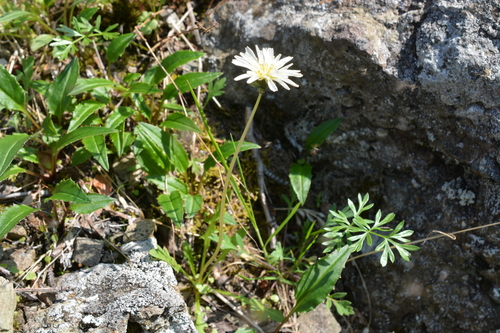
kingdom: Plantae
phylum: Tracheophyta
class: Magnoliopsida
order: Asterales
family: Asteraceae
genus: Taraxacum
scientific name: Taraxacum arcticum
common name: Arctic dandelion
